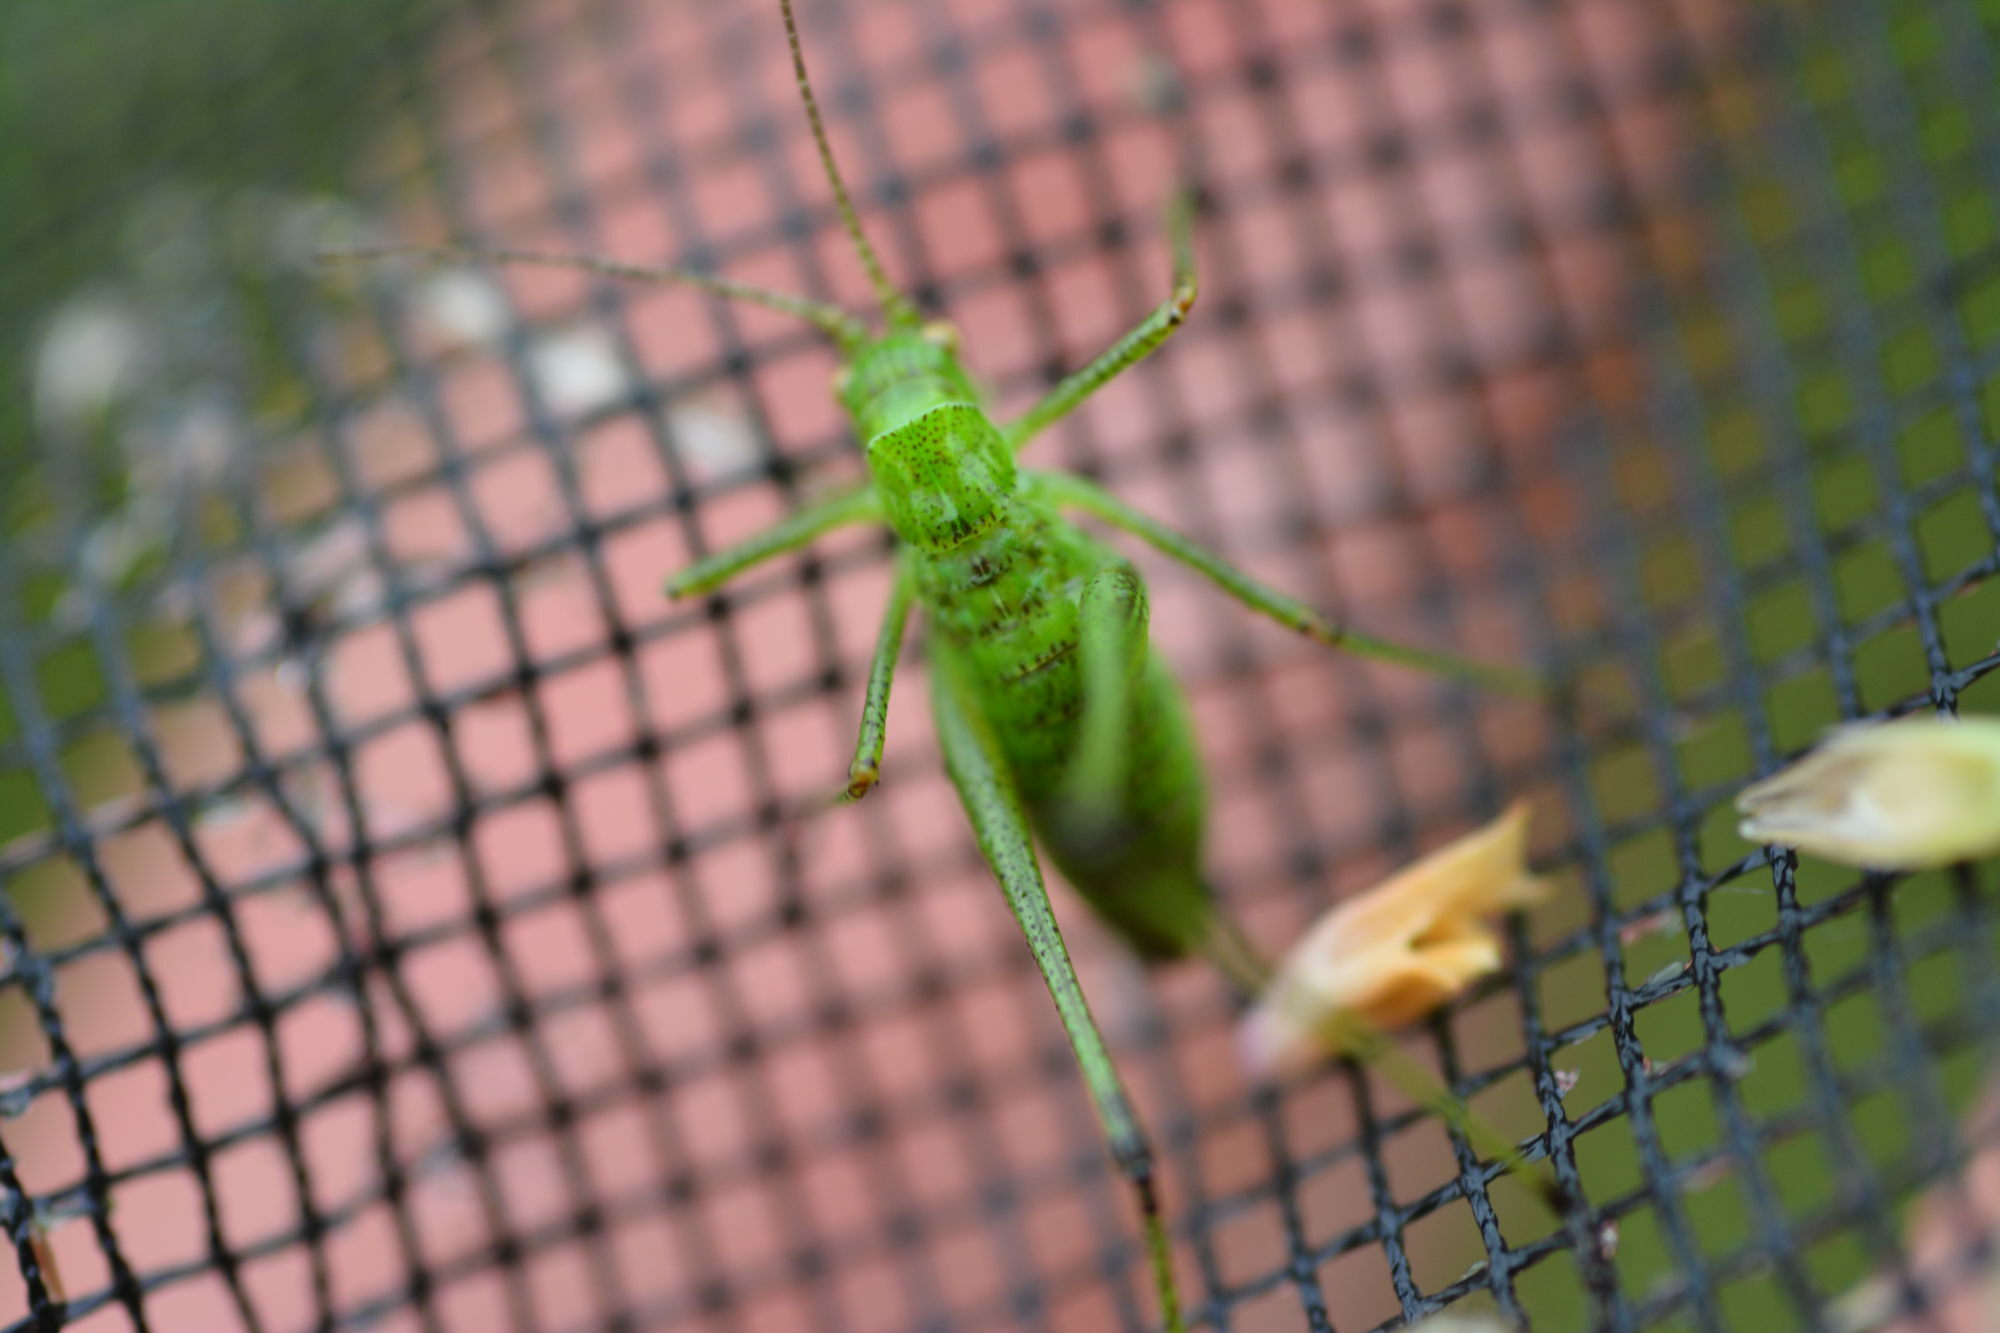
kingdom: Animalia
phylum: Arthropoda
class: Insecta
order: Orthoptera
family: Tettigoniidae
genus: Phaneroptera
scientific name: Phaneroptera falcata
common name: Sickle-bearing bush-cricket
